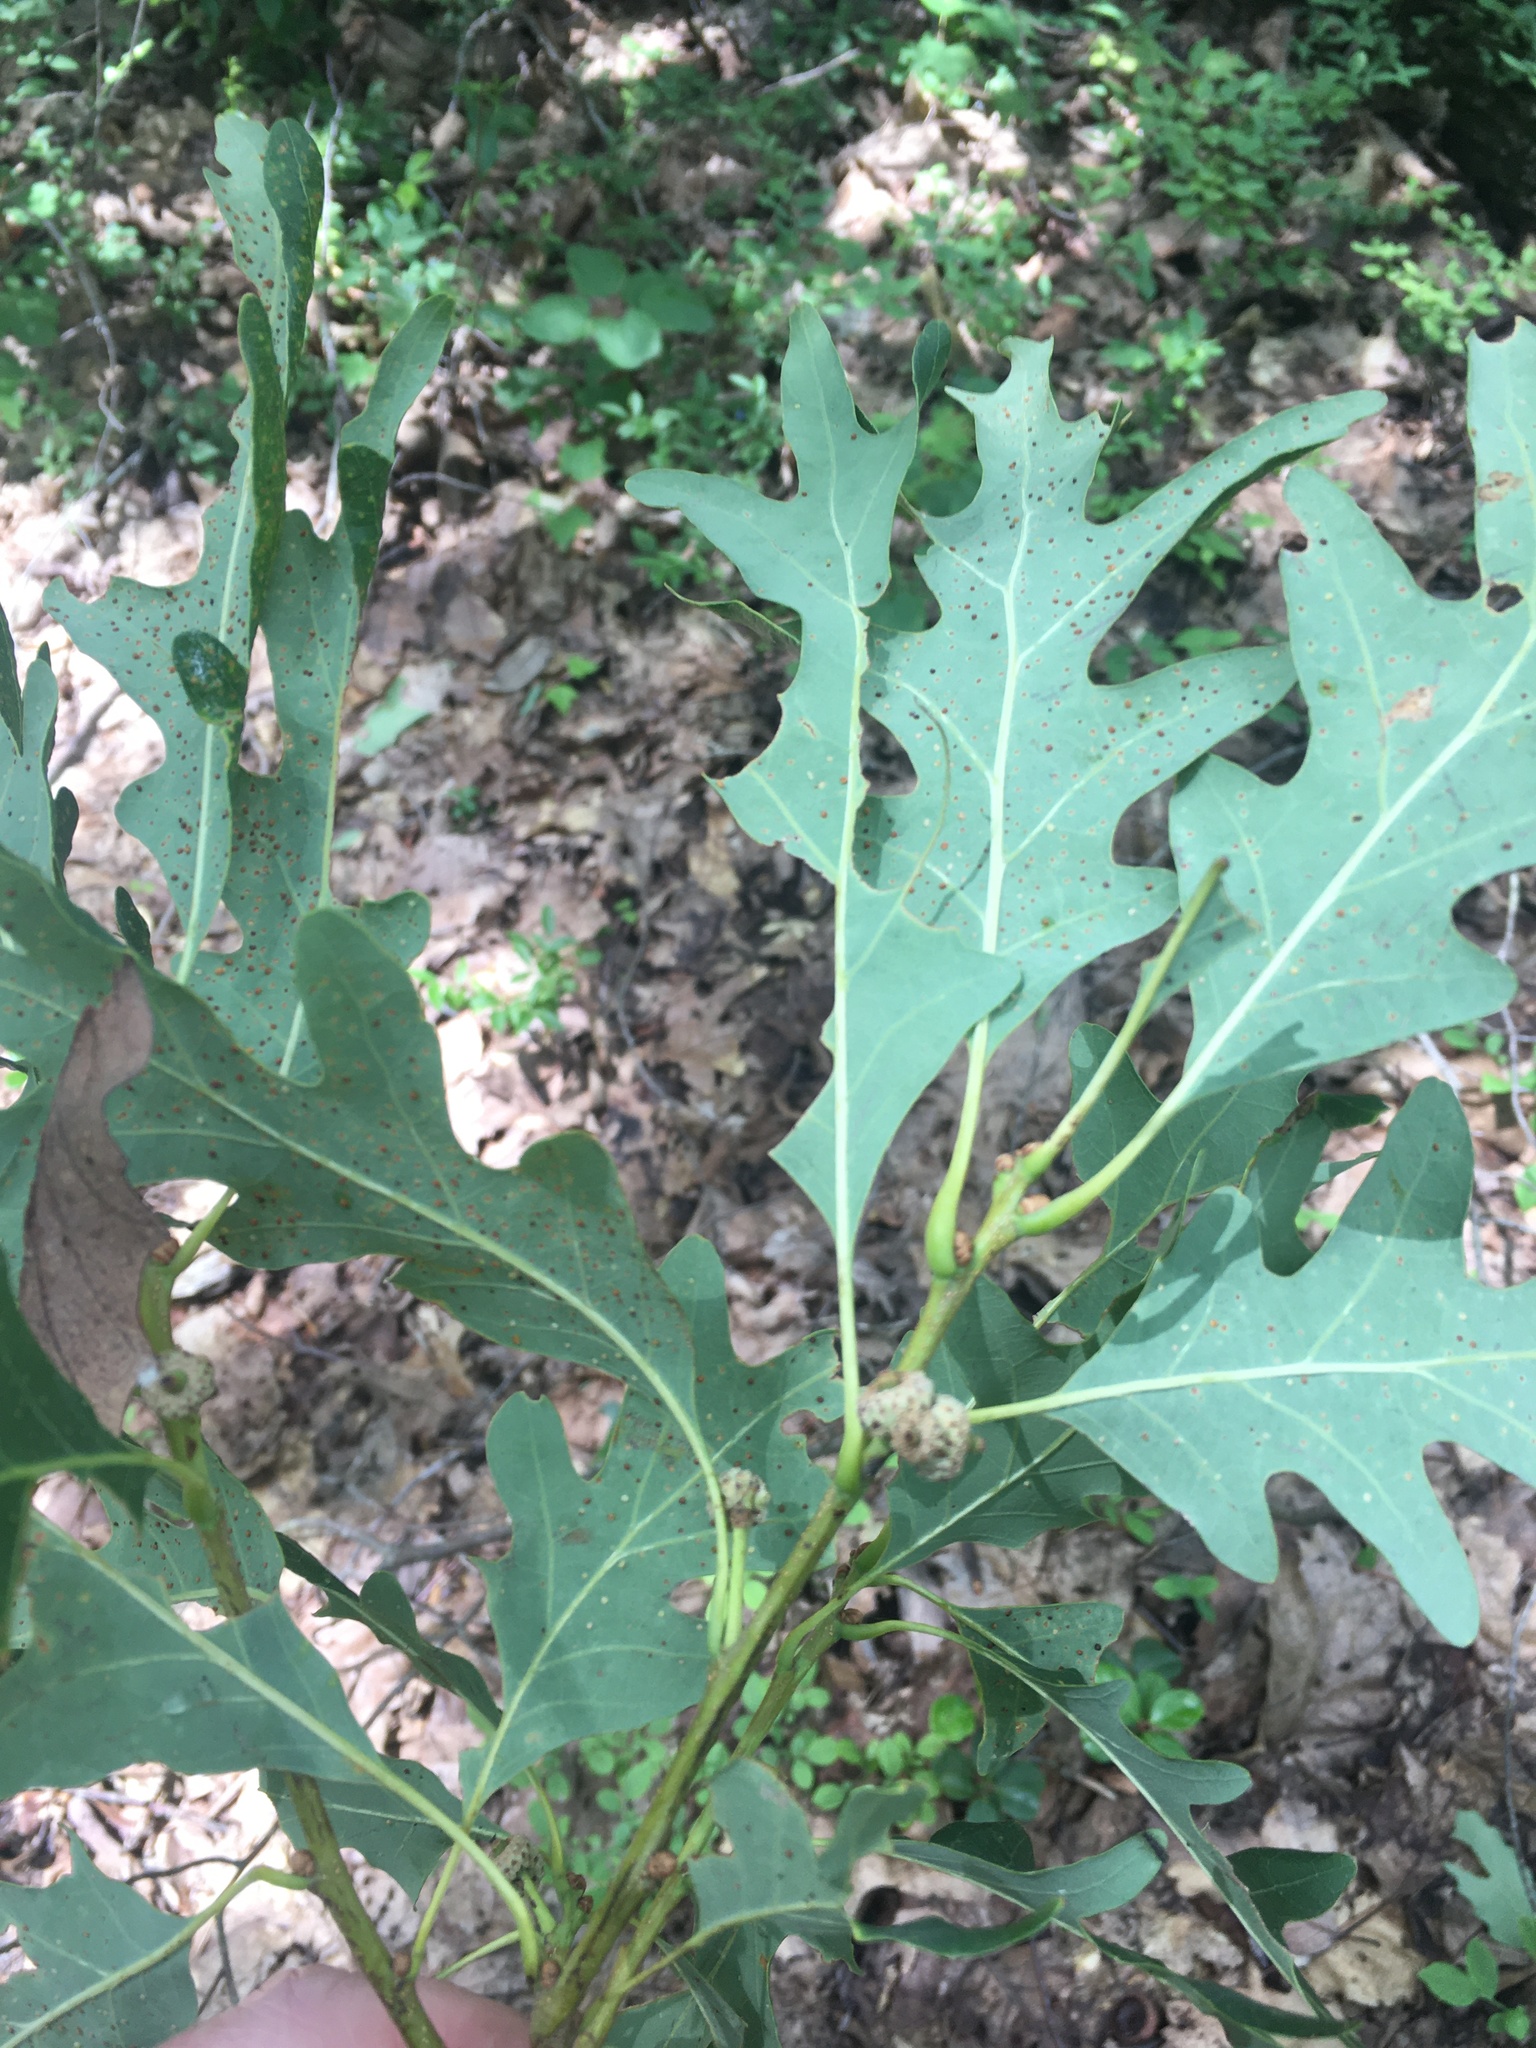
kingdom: Plantae
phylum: Tracheophyta
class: Magnoliopsida
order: Fagales
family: Fagaceae
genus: Quercus
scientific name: Quercus alba
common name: White oak
